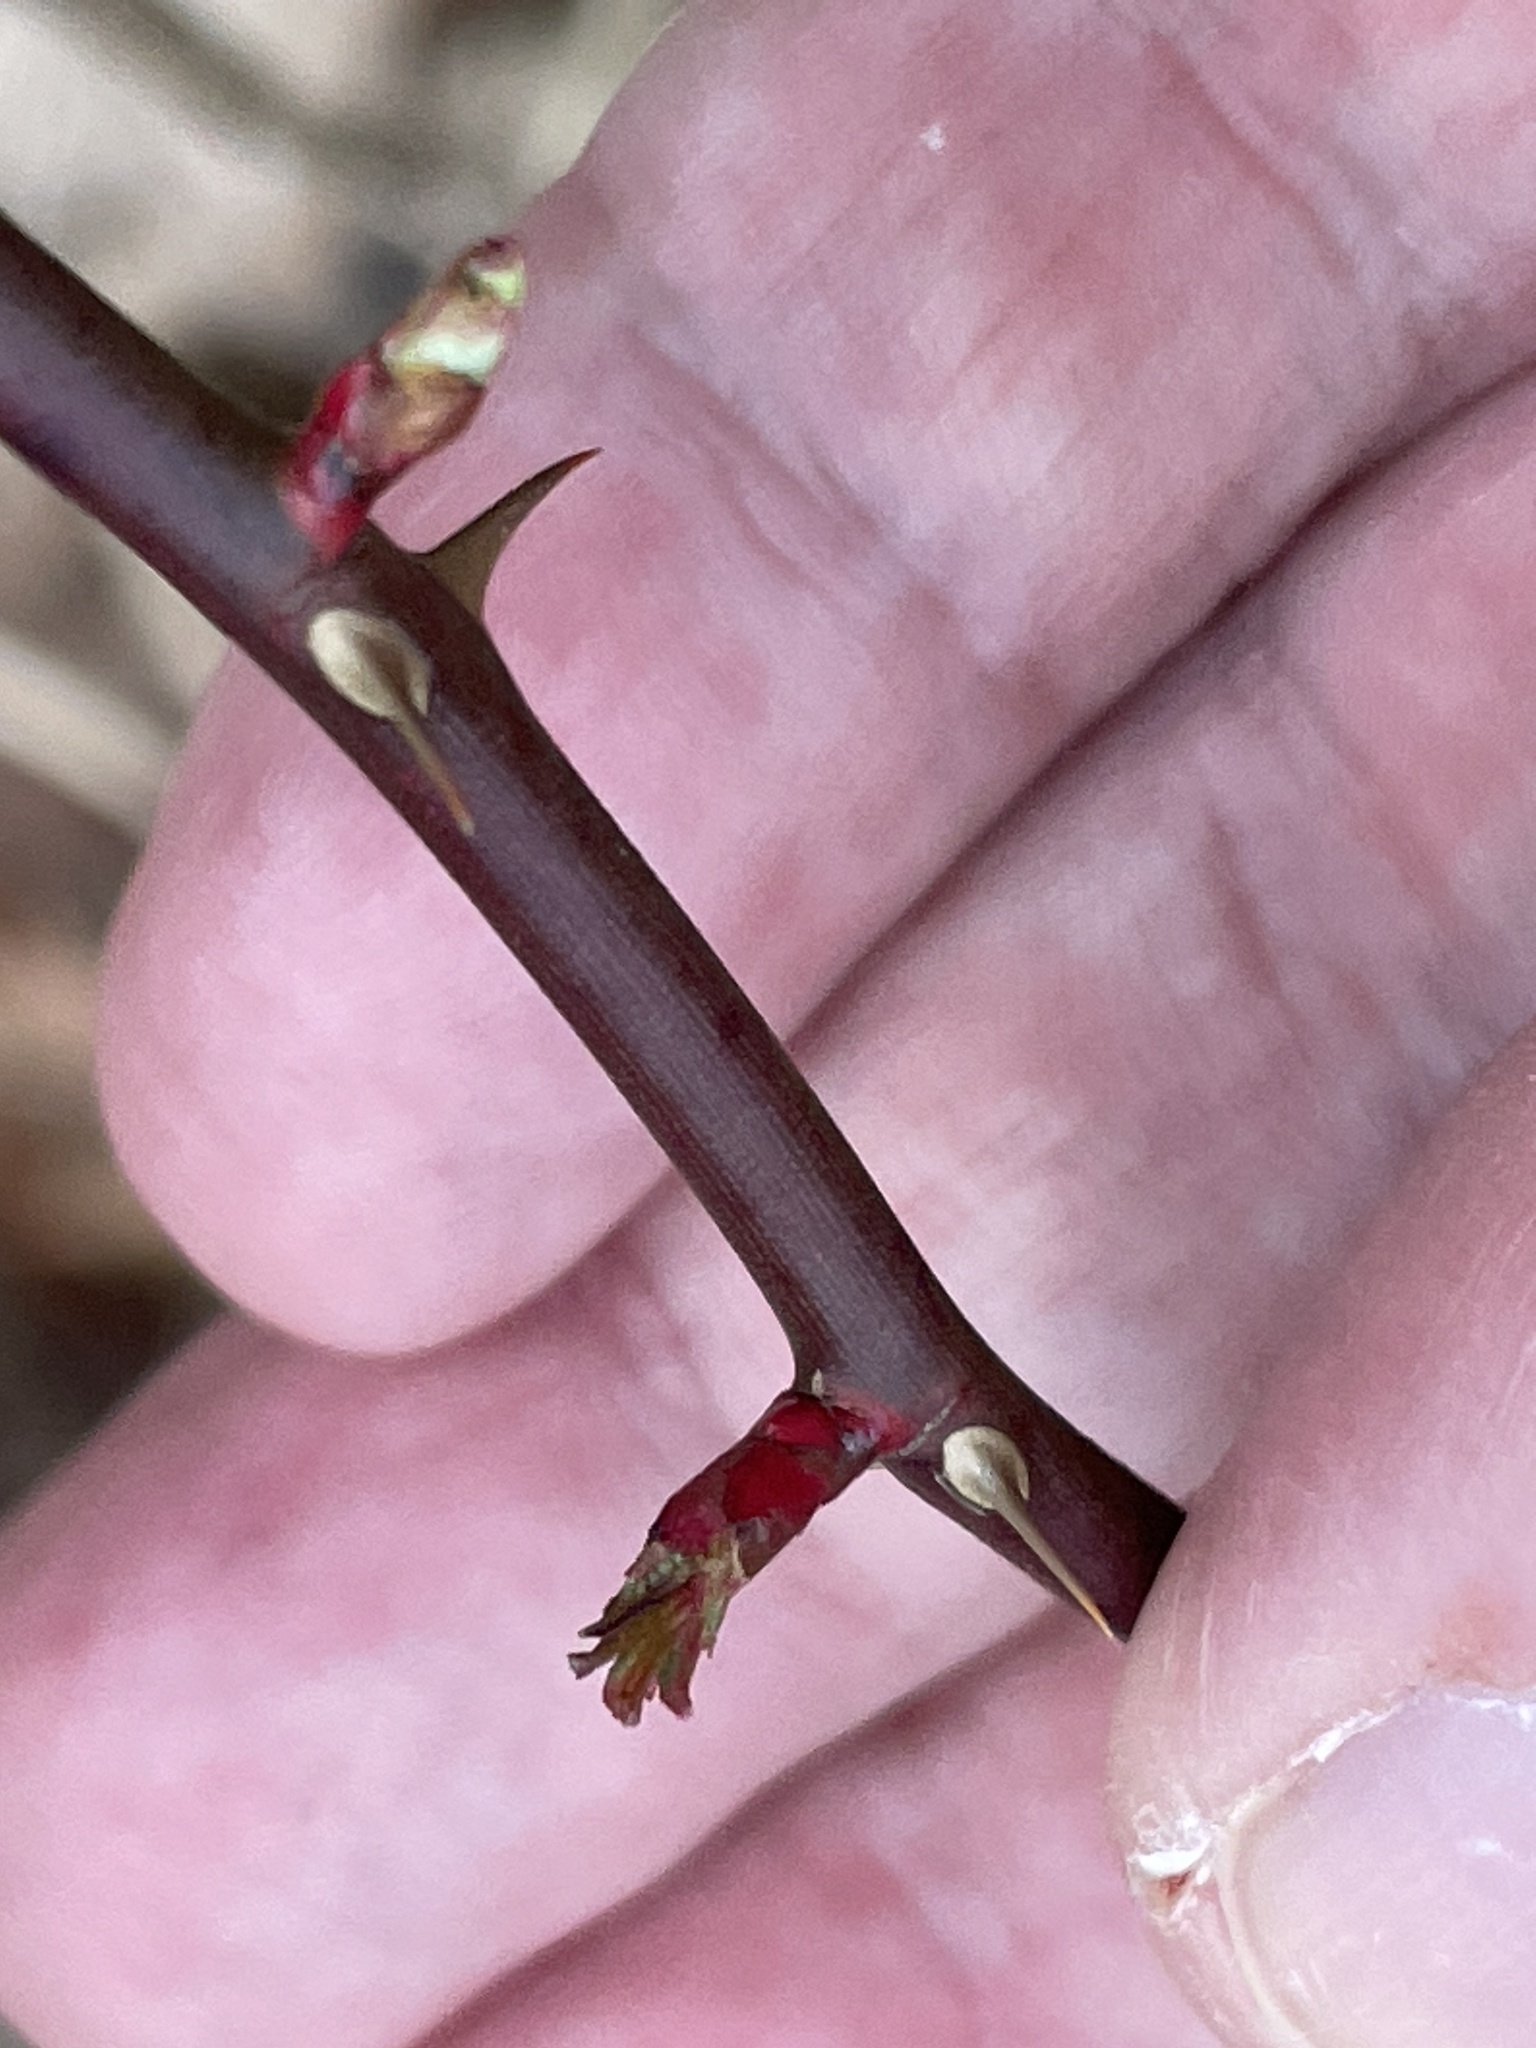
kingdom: Plantae
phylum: Tracheophyta
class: Magnoliopsida
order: Rosales
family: Rosaceae
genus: Rosa
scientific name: Rosa multiflora
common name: Multiflora rose
